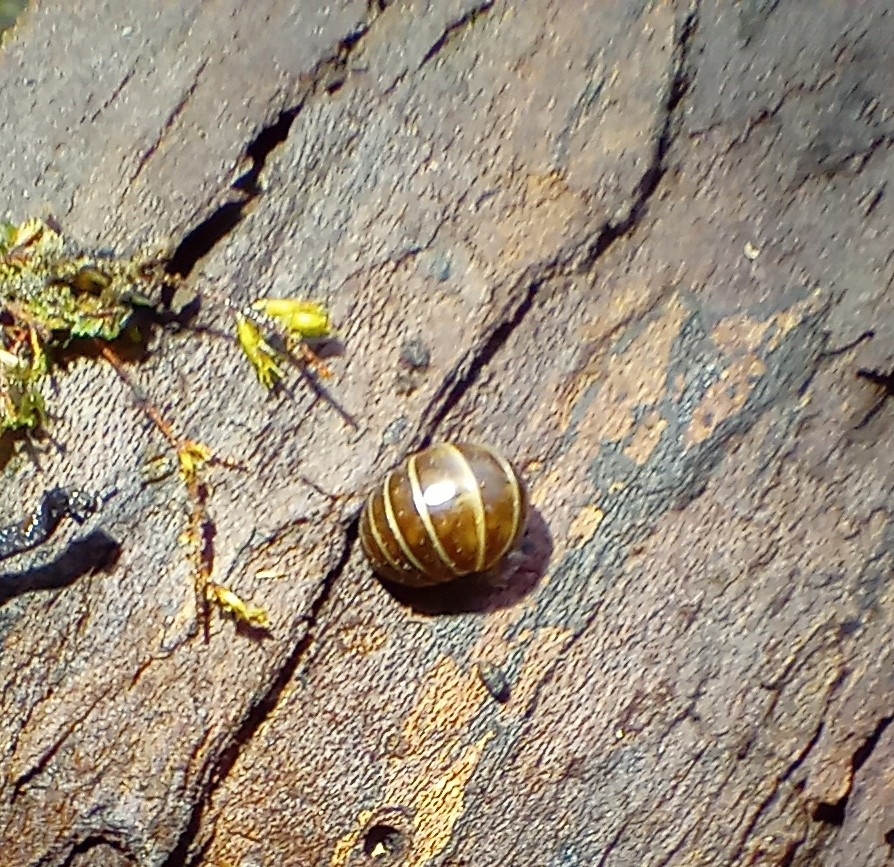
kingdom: Animalia
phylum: Arthropoda
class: Diplopoda
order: Glomerida
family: Glomeridae
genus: Glomeris
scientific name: Glomeris marginata
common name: Bordered pill millipede
